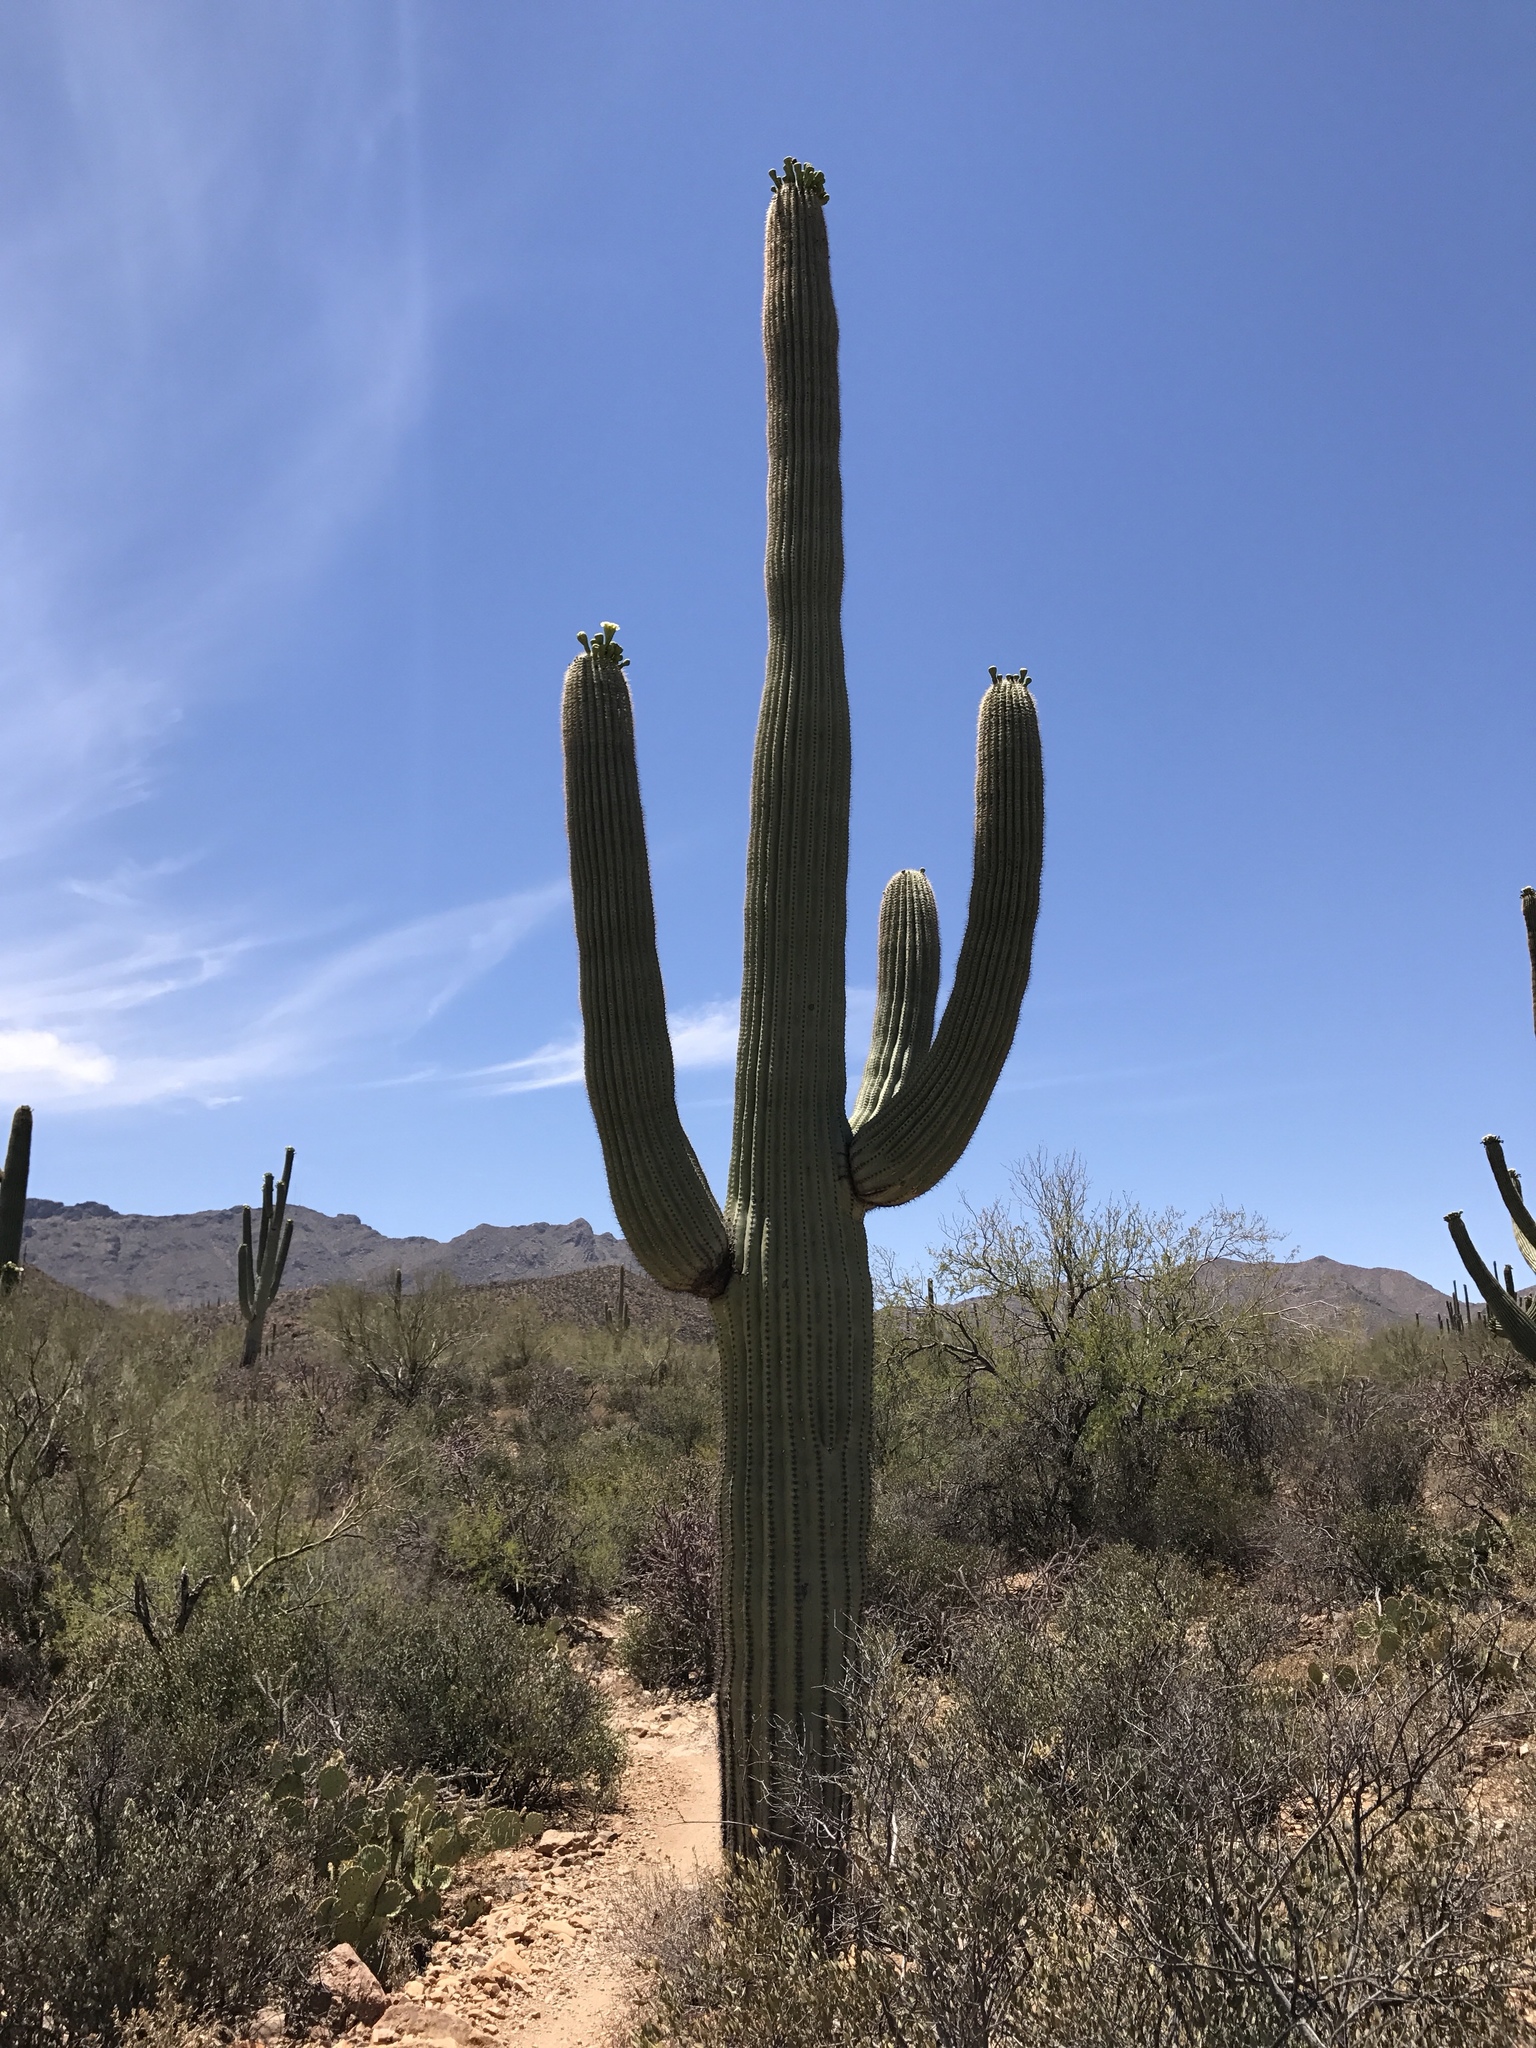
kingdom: Plantae
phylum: Tracheophyta
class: Magnoliopsida
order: Caryophyllales
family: Cactaceae
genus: Carnegiea
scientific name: Carnegiea gigantea
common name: Saguaro
